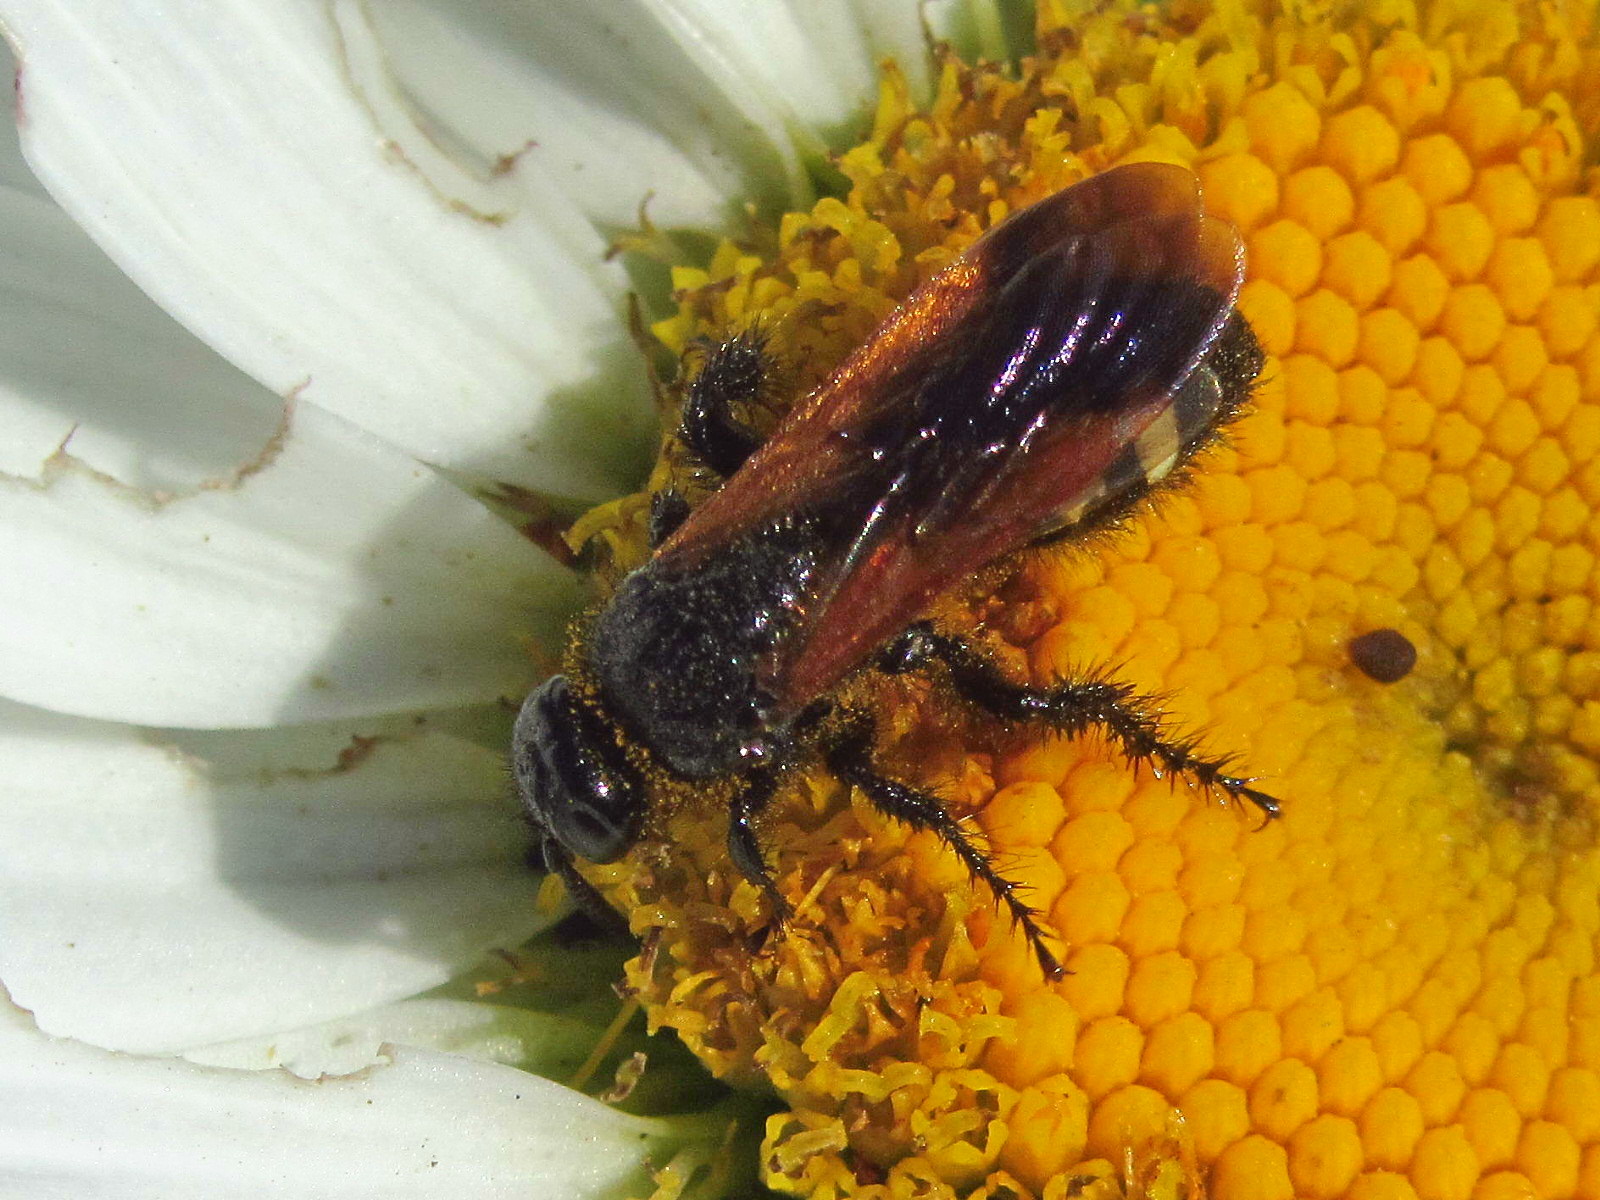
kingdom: Animalia
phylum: Arthropoda
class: Insecta
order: Hymenoptera
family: Vespidae
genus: Vespa
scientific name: Vespa sexmaculata
